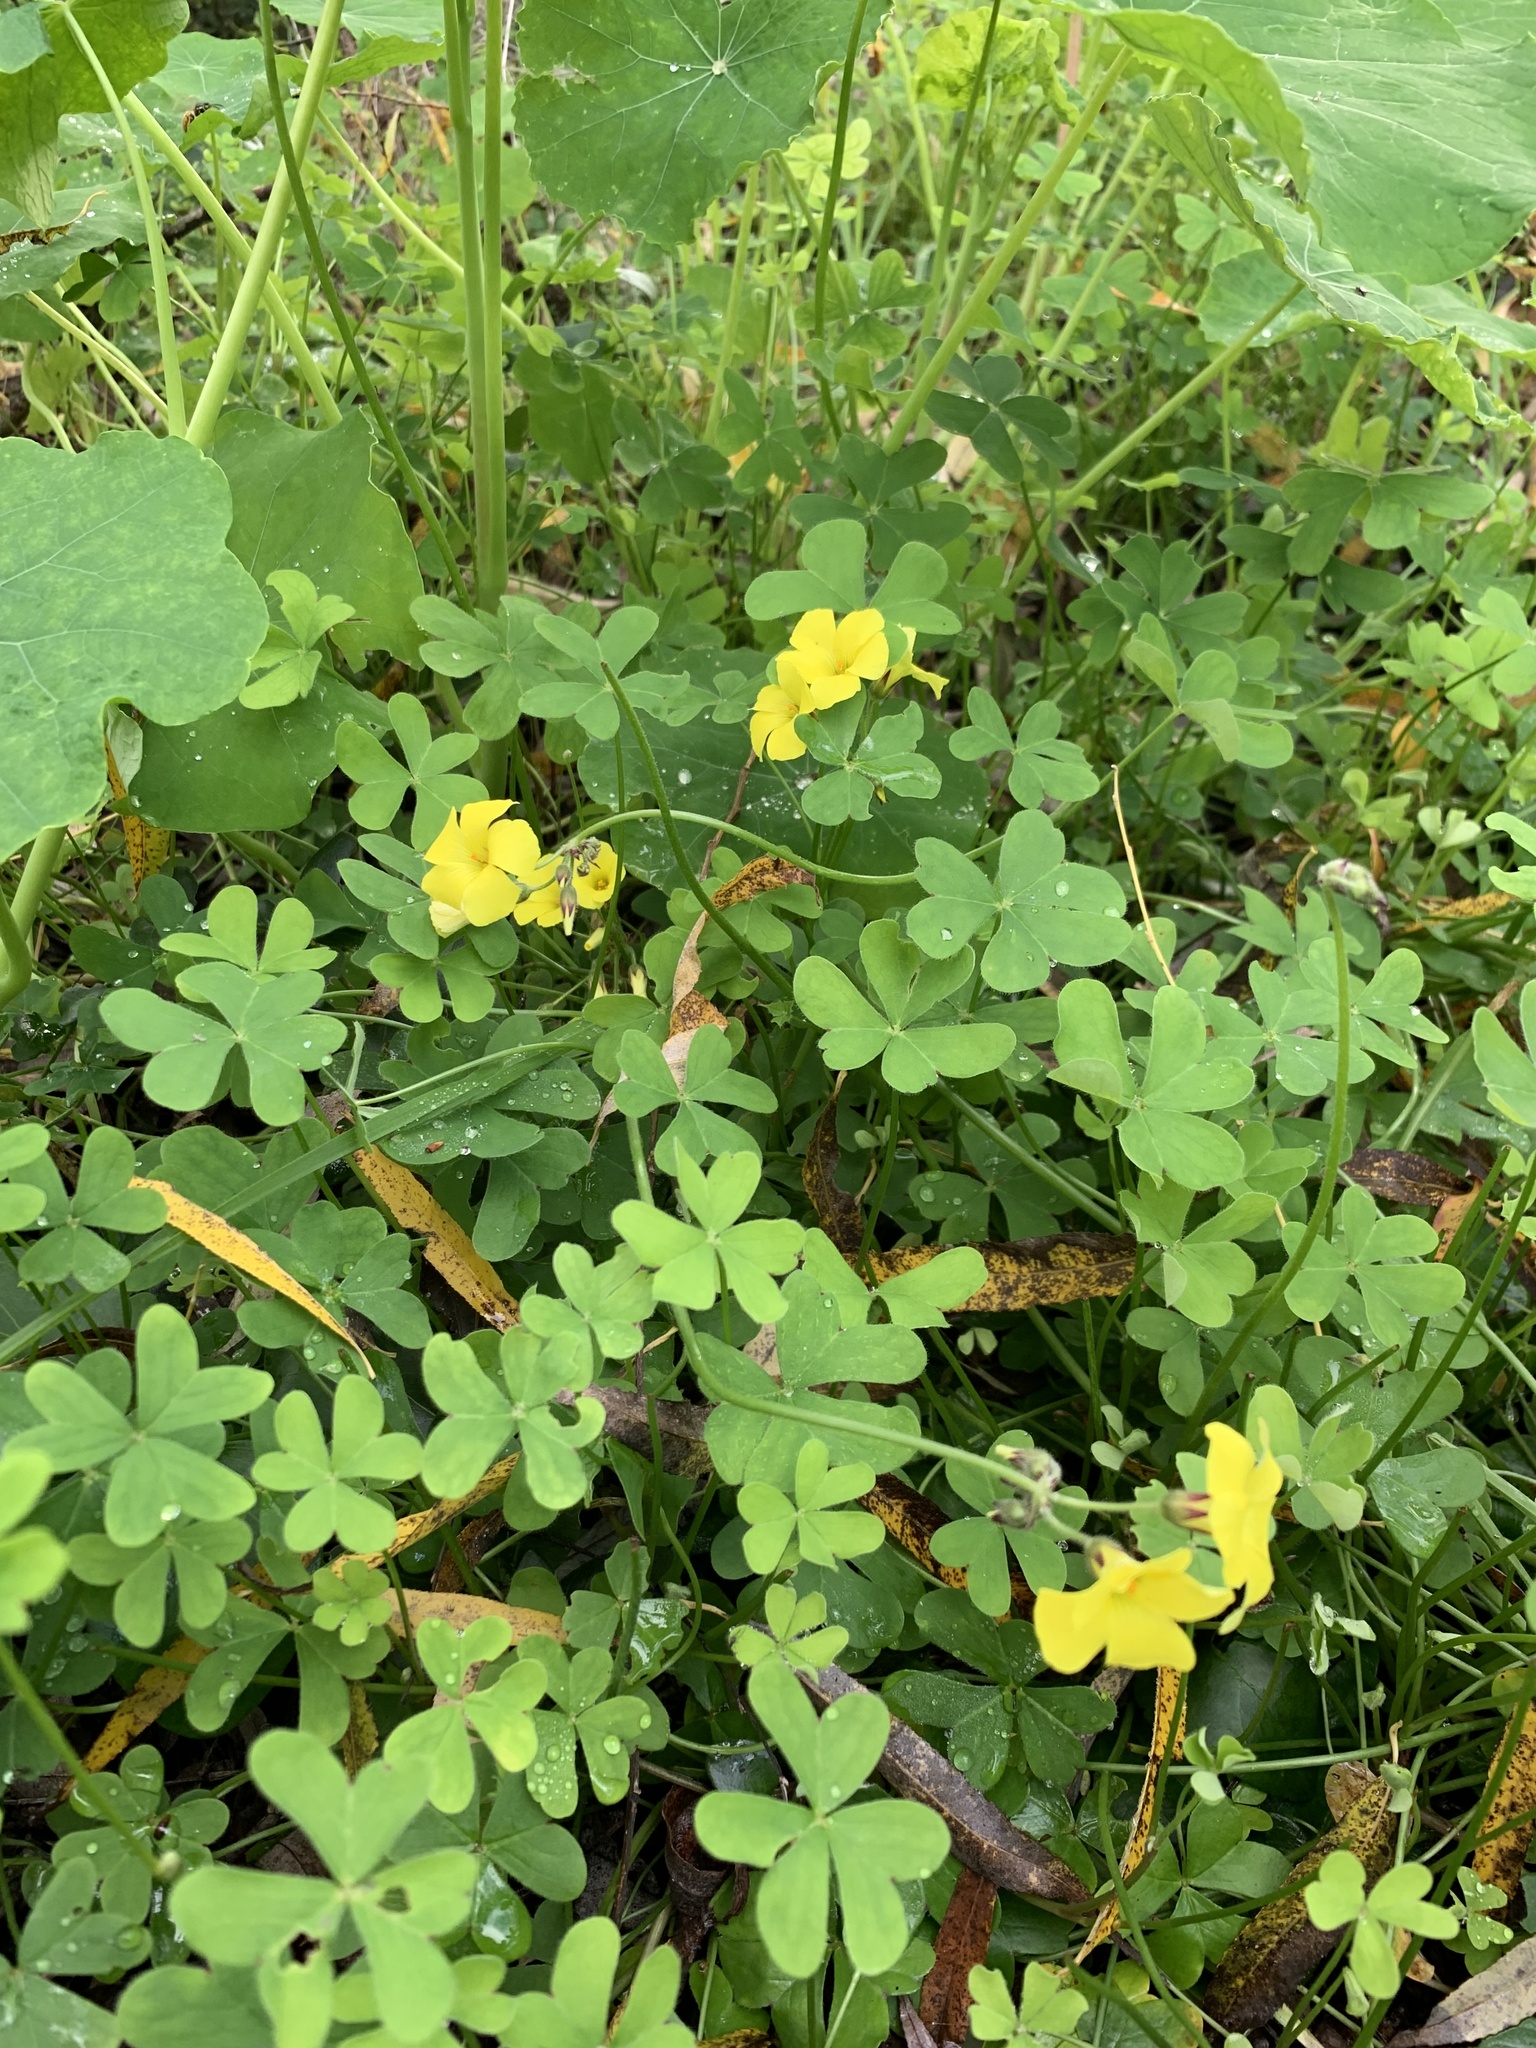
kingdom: Plantae
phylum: Tracheophyta
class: Magnoliopsida
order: Oxalidales
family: Oxalidaceae
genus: Oxalis
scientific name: Oxalis pes-caprae
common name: Bermuda-buttercup
